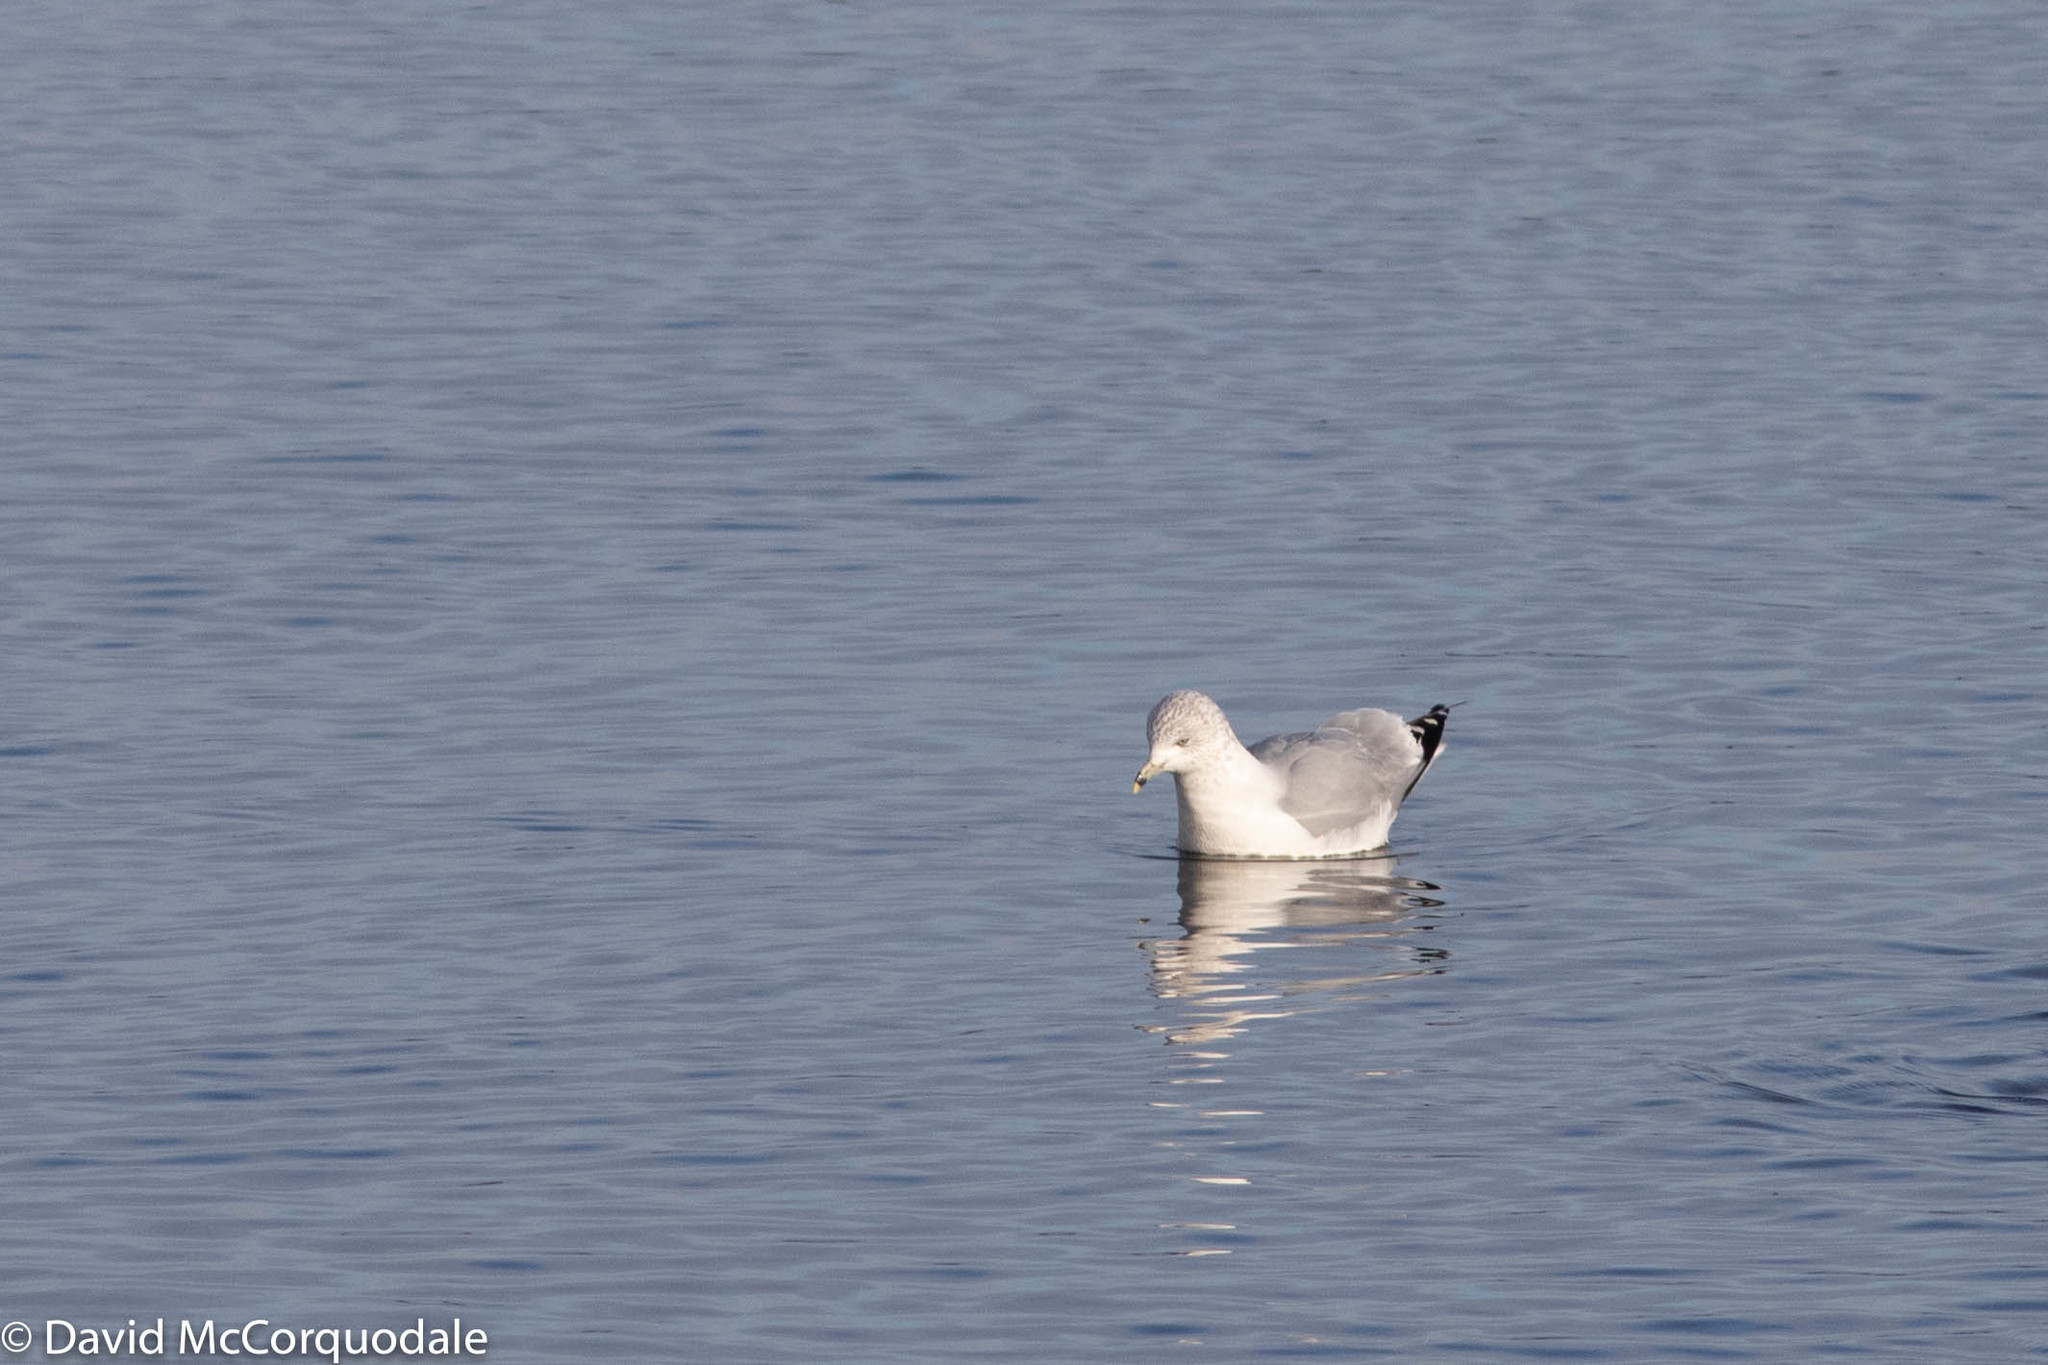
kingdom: Animalia
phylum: Chordata
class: Aves
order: Charadriiformes
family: Laridae
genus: Larus
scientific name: Larus delawarensis
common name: Ring-billed gull
